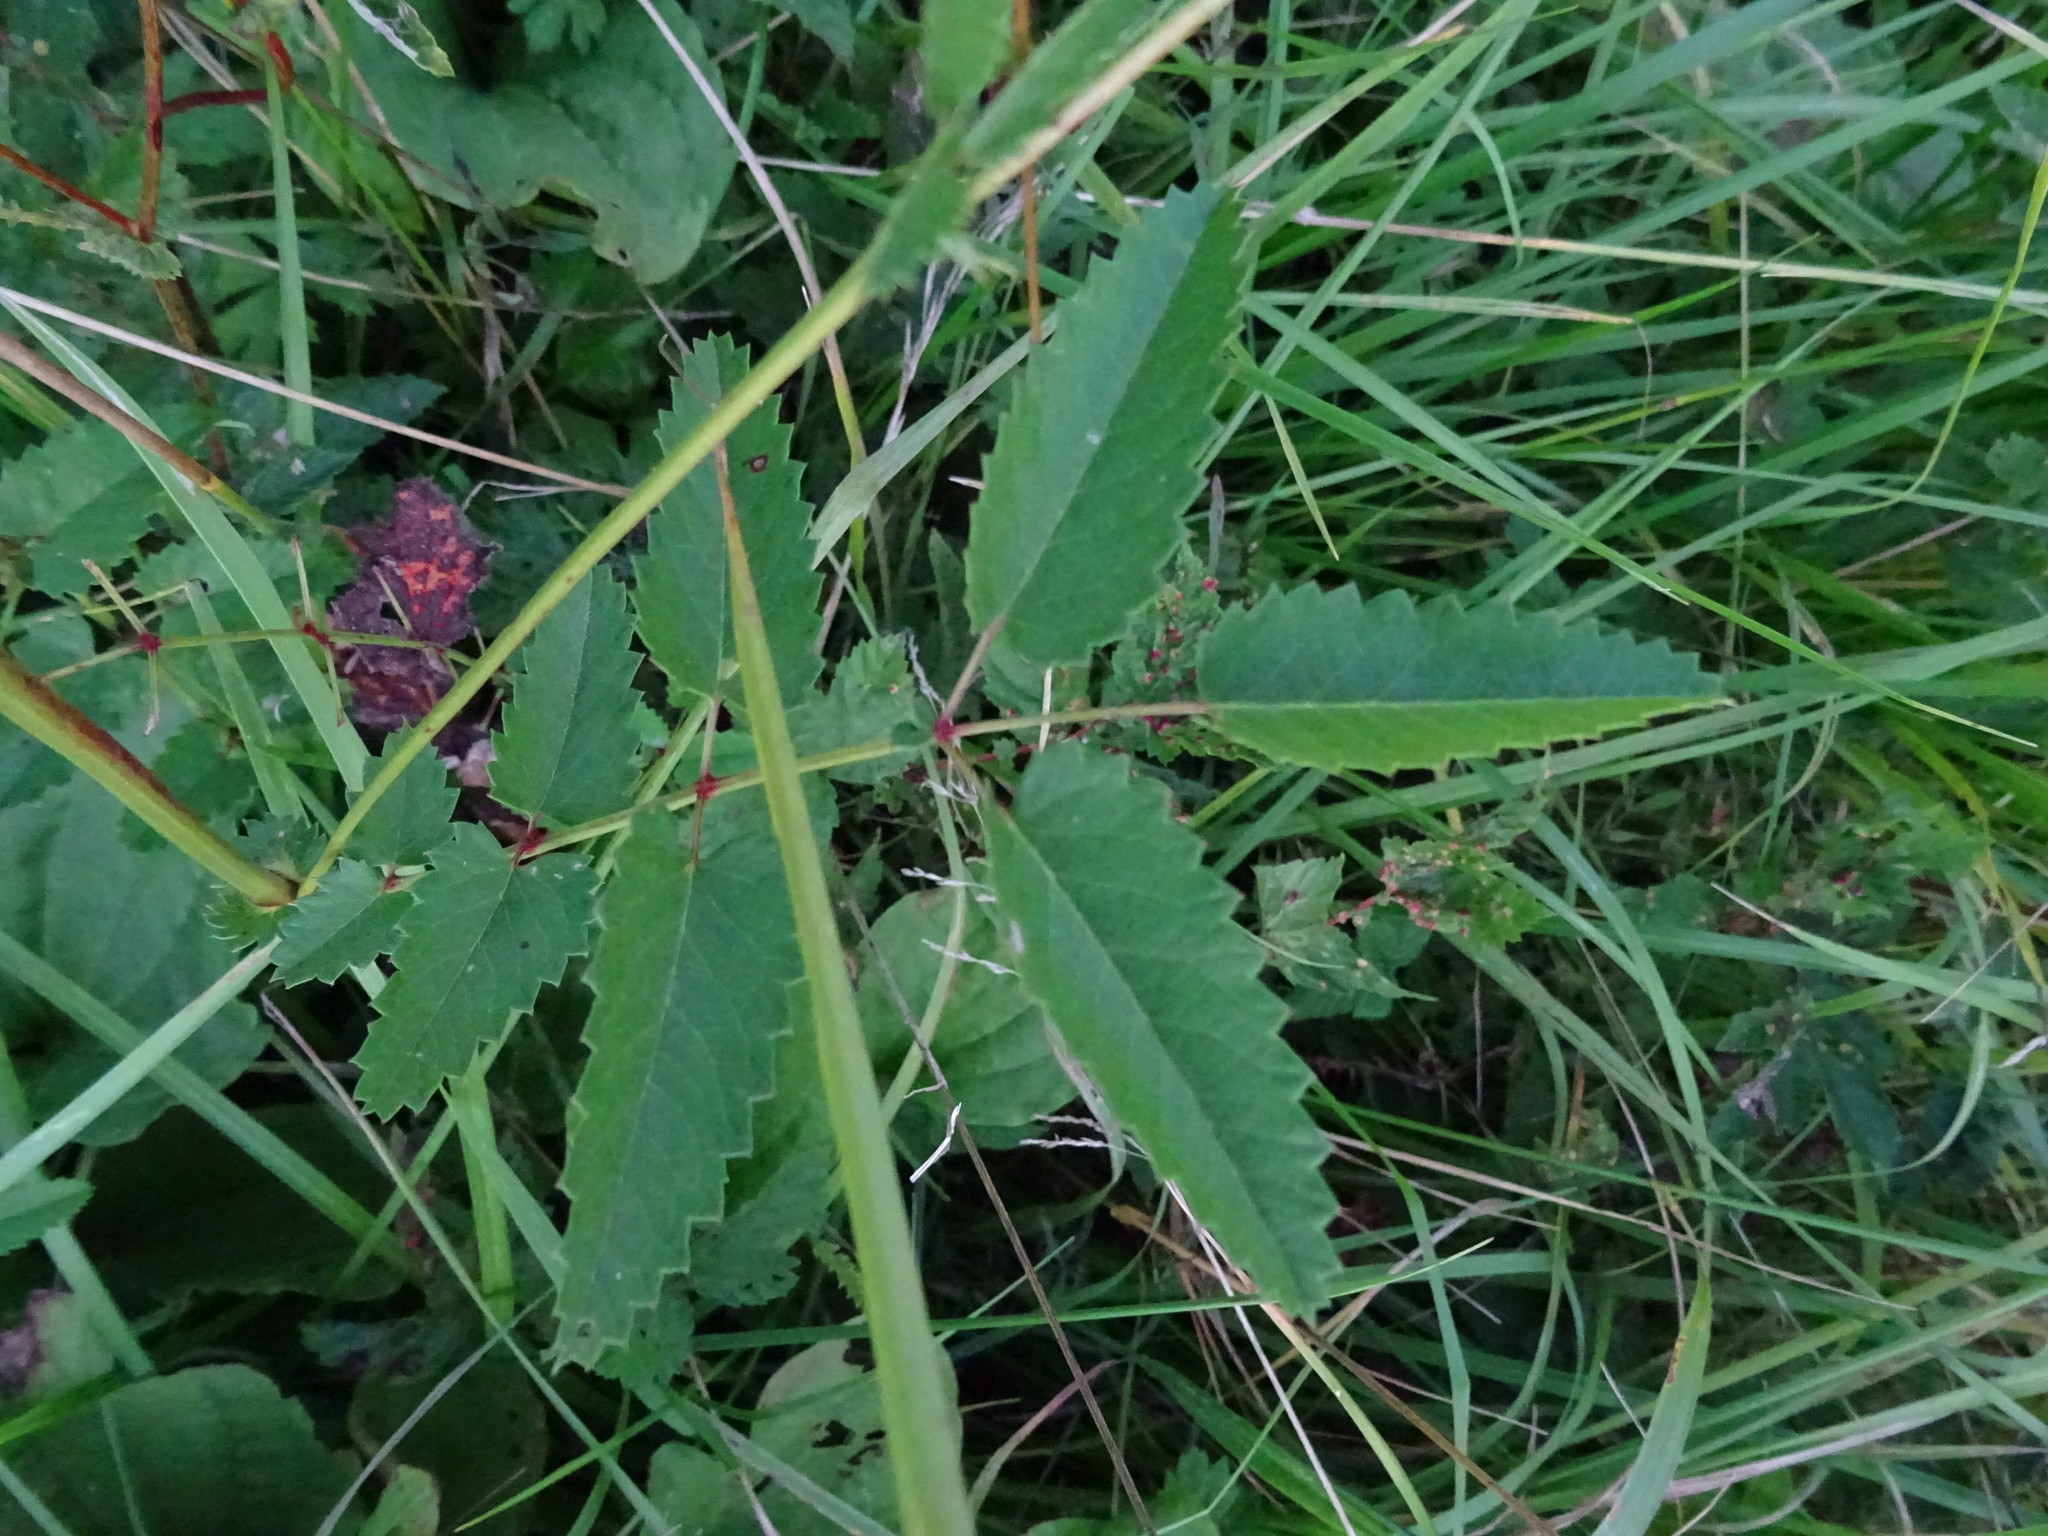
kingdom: Plantae
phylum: Tracheophyta
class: Magnoliopsida
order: Rosales
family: Rosaceae
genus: Sanguisorba
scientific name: Sanguisorba officinalis
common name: Great burnet
